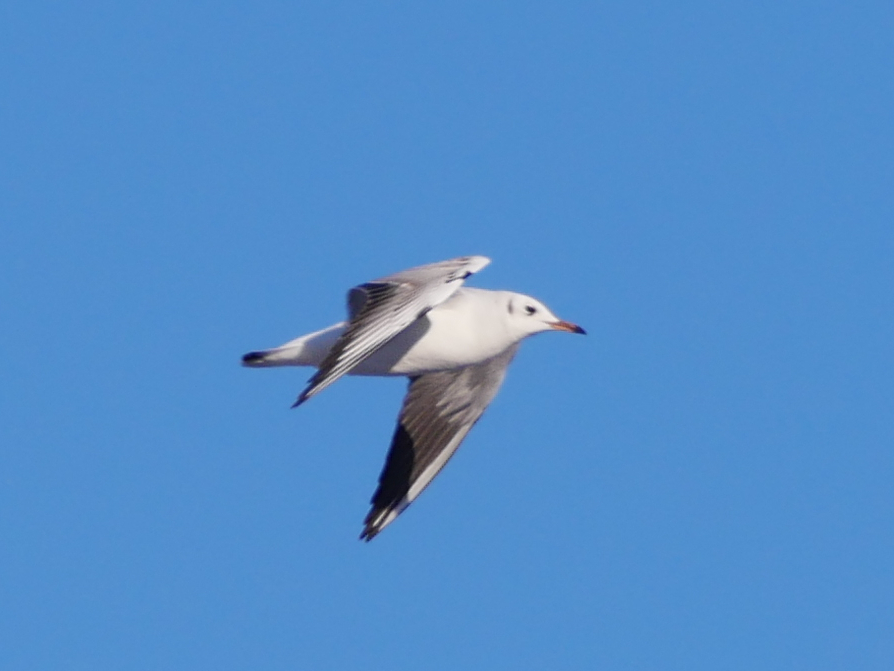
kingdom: Animalia
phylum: Chordata
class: Aves
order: Charadriiformes
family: Laridae
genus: Chroicocephalus
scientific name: Chroicocephalus ridibundus
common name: Black-headed gull
